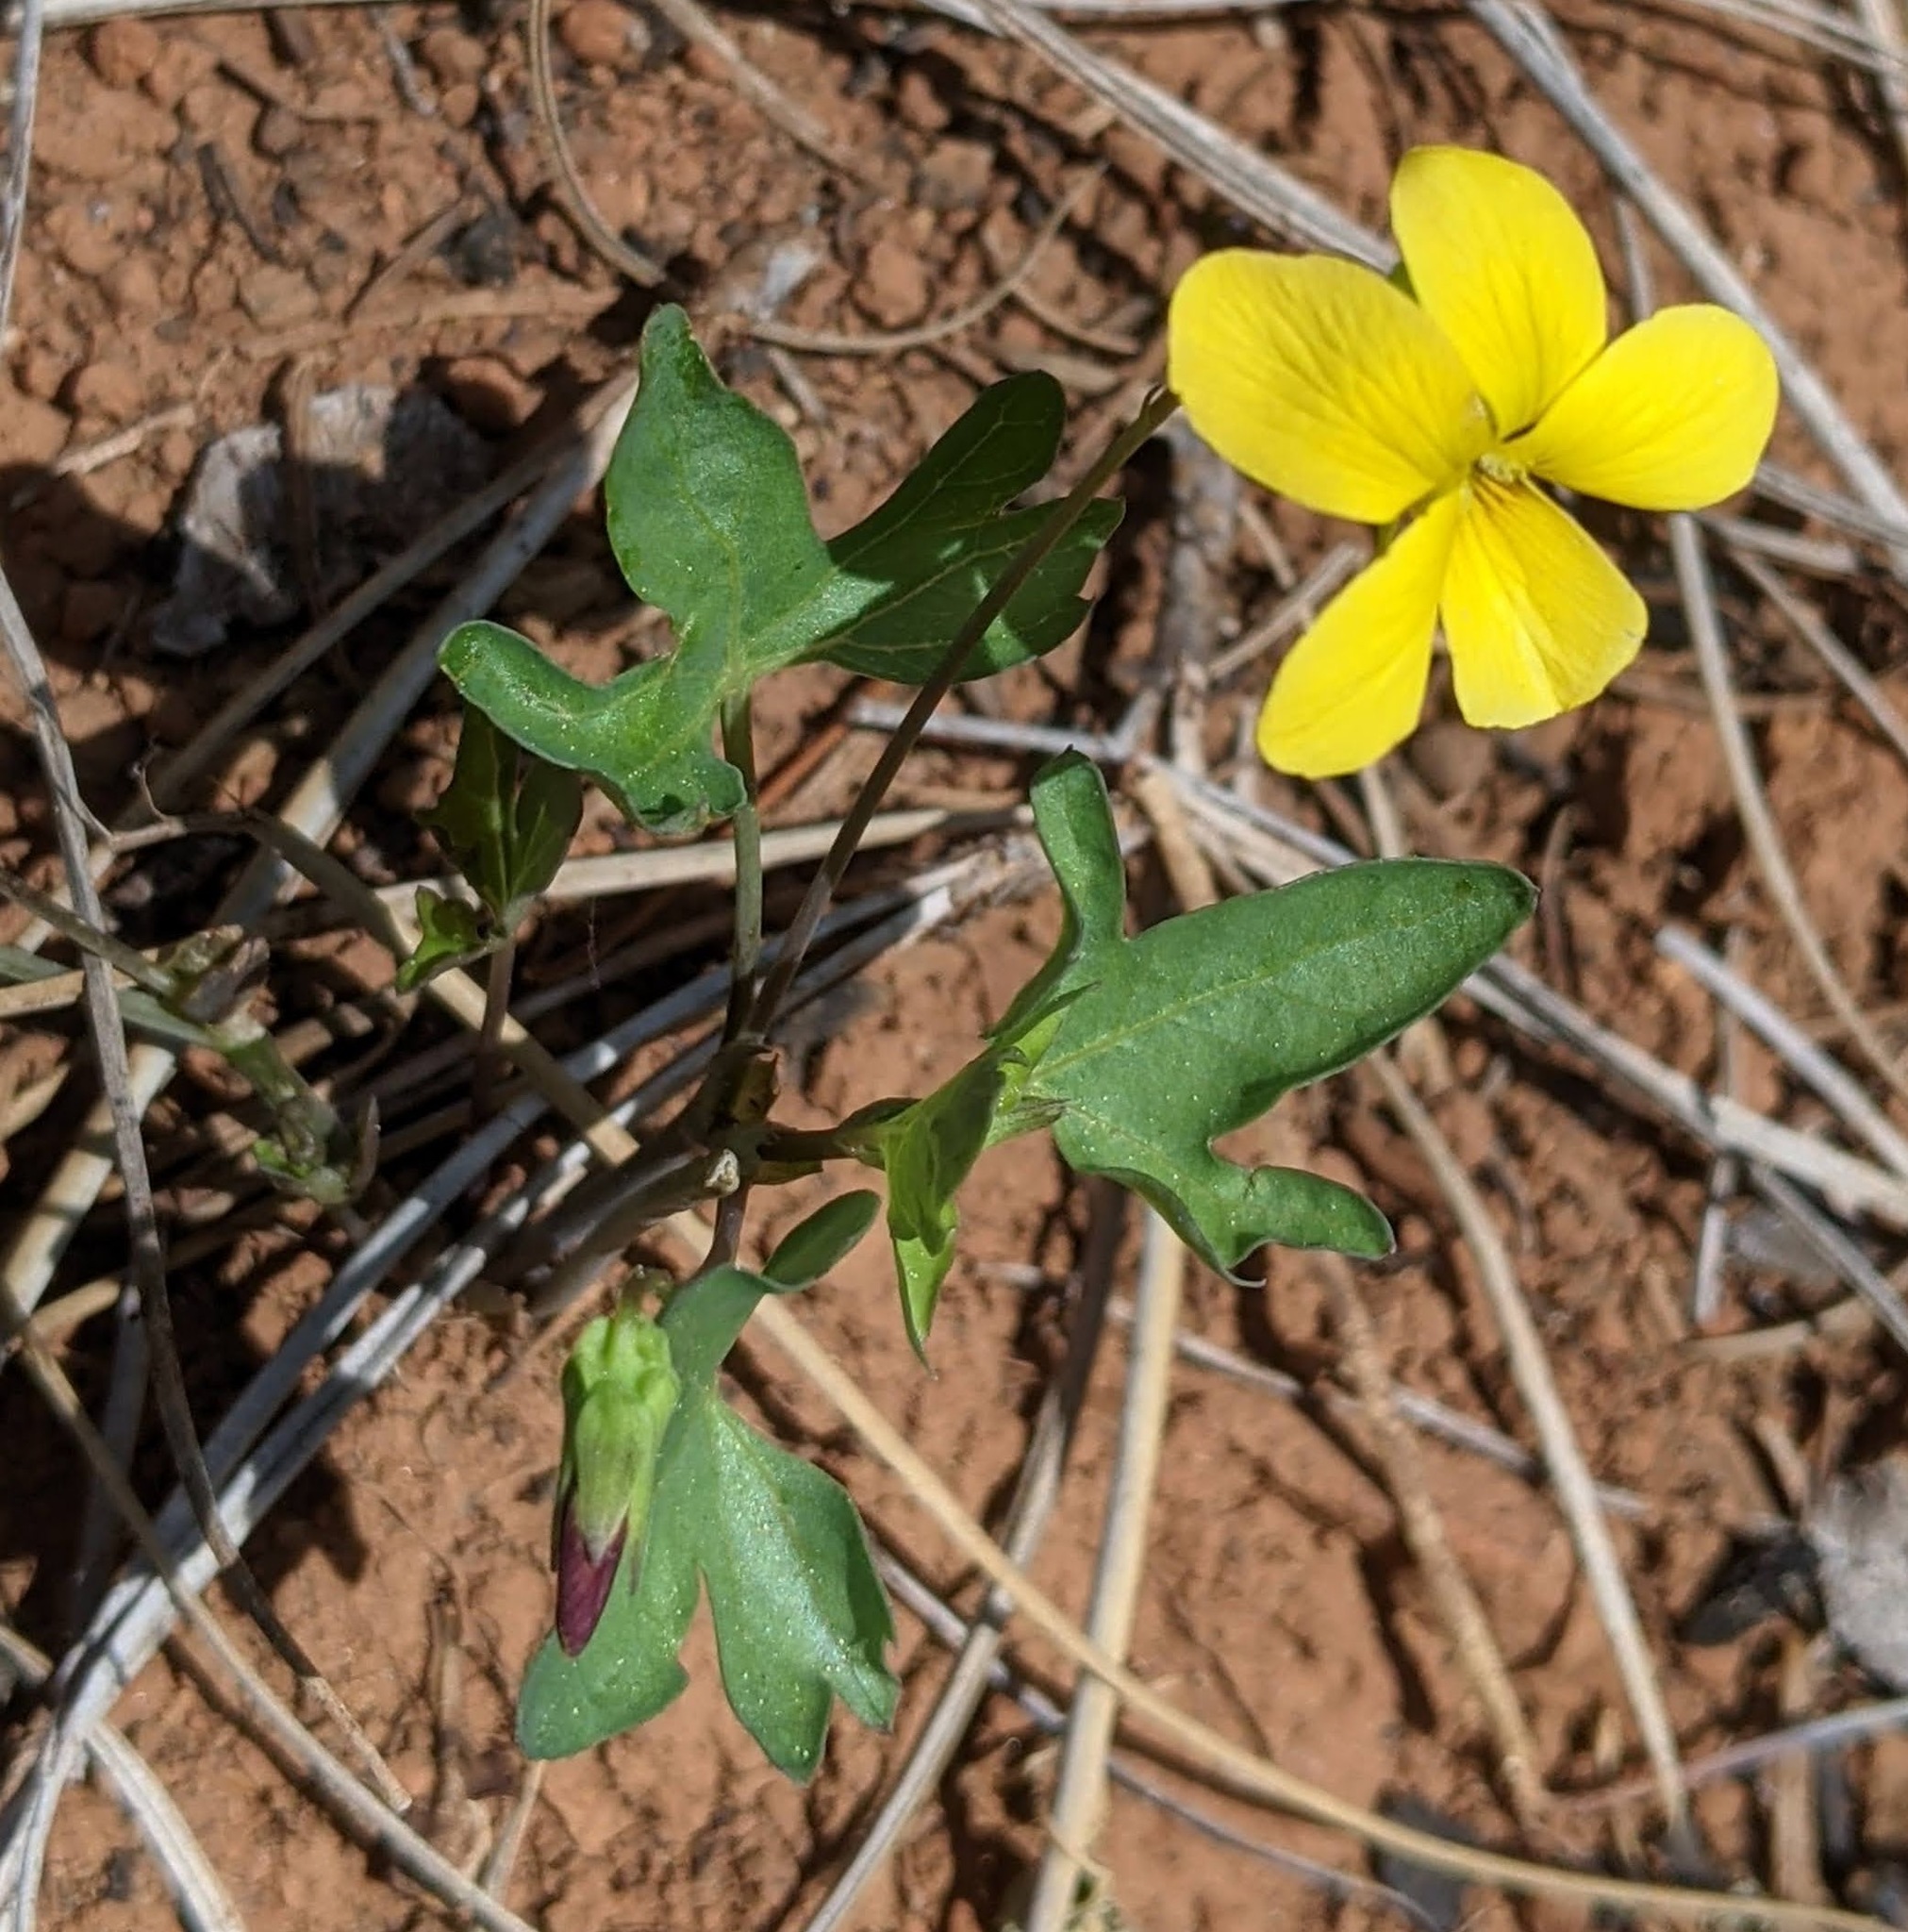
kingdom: Plantae
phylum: Tracheophyta
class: Magnoliopsida
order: Malpighiales
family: Violaceae
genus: Viola
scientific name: Viola lobata
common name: Pine violet
